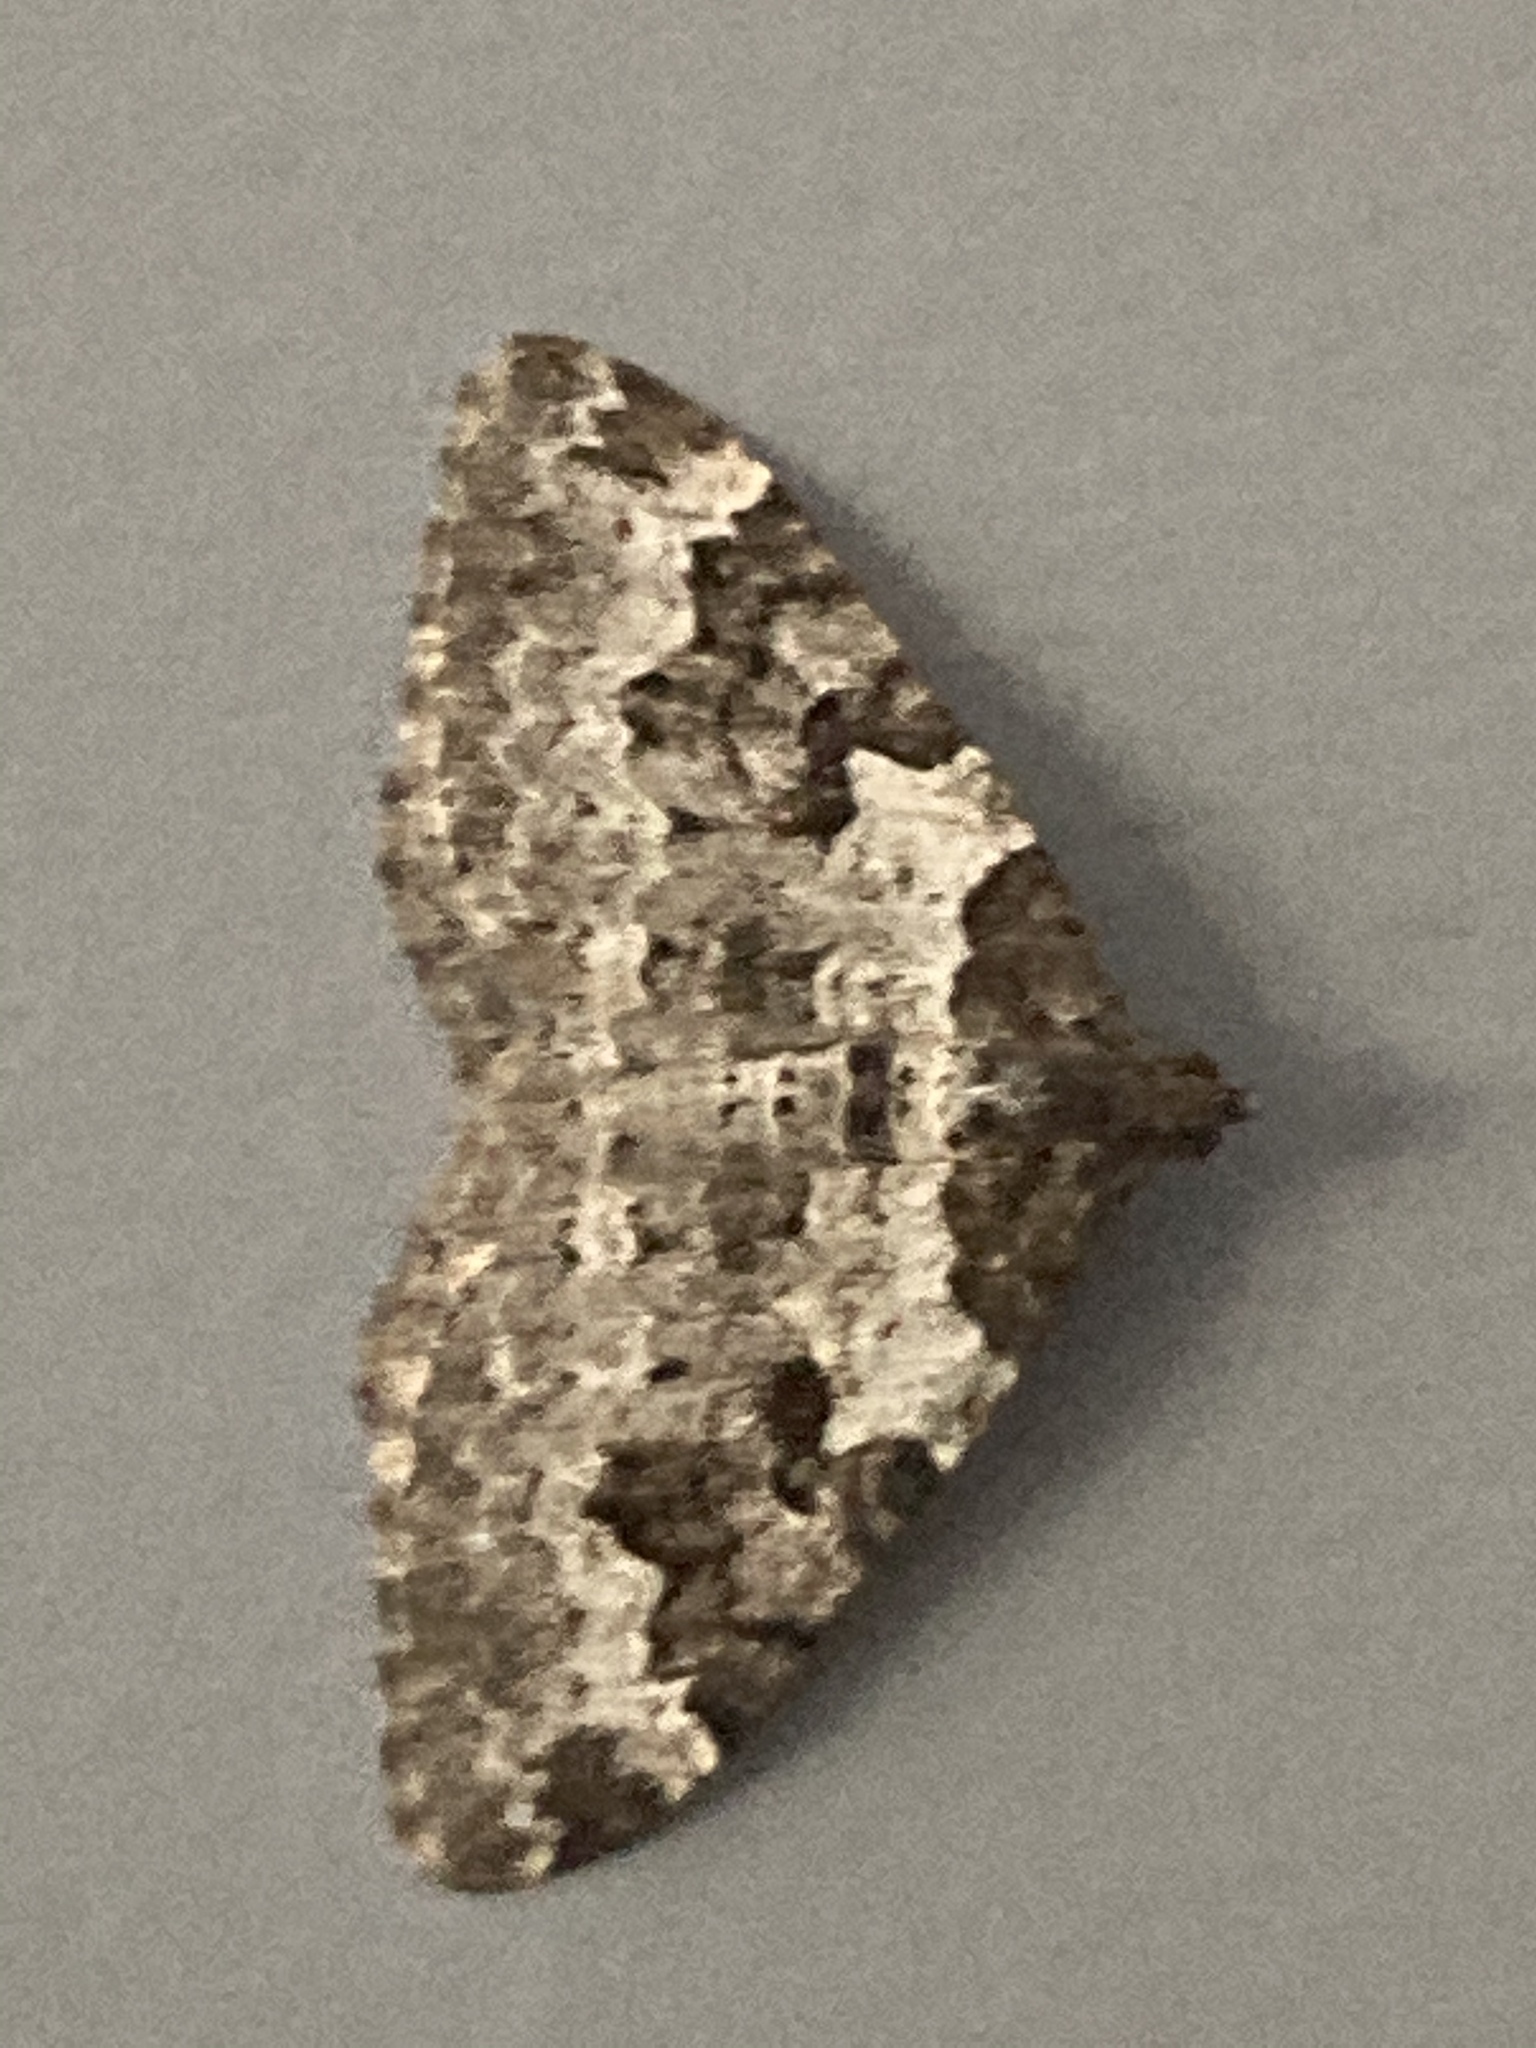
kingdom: Animalia
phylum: Arthropoda
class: Insecta
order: Lepidoptera
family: Geometridae
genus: Xanthorhoe
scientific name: Xanthorhoe fluctuata
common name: Garden carpet
